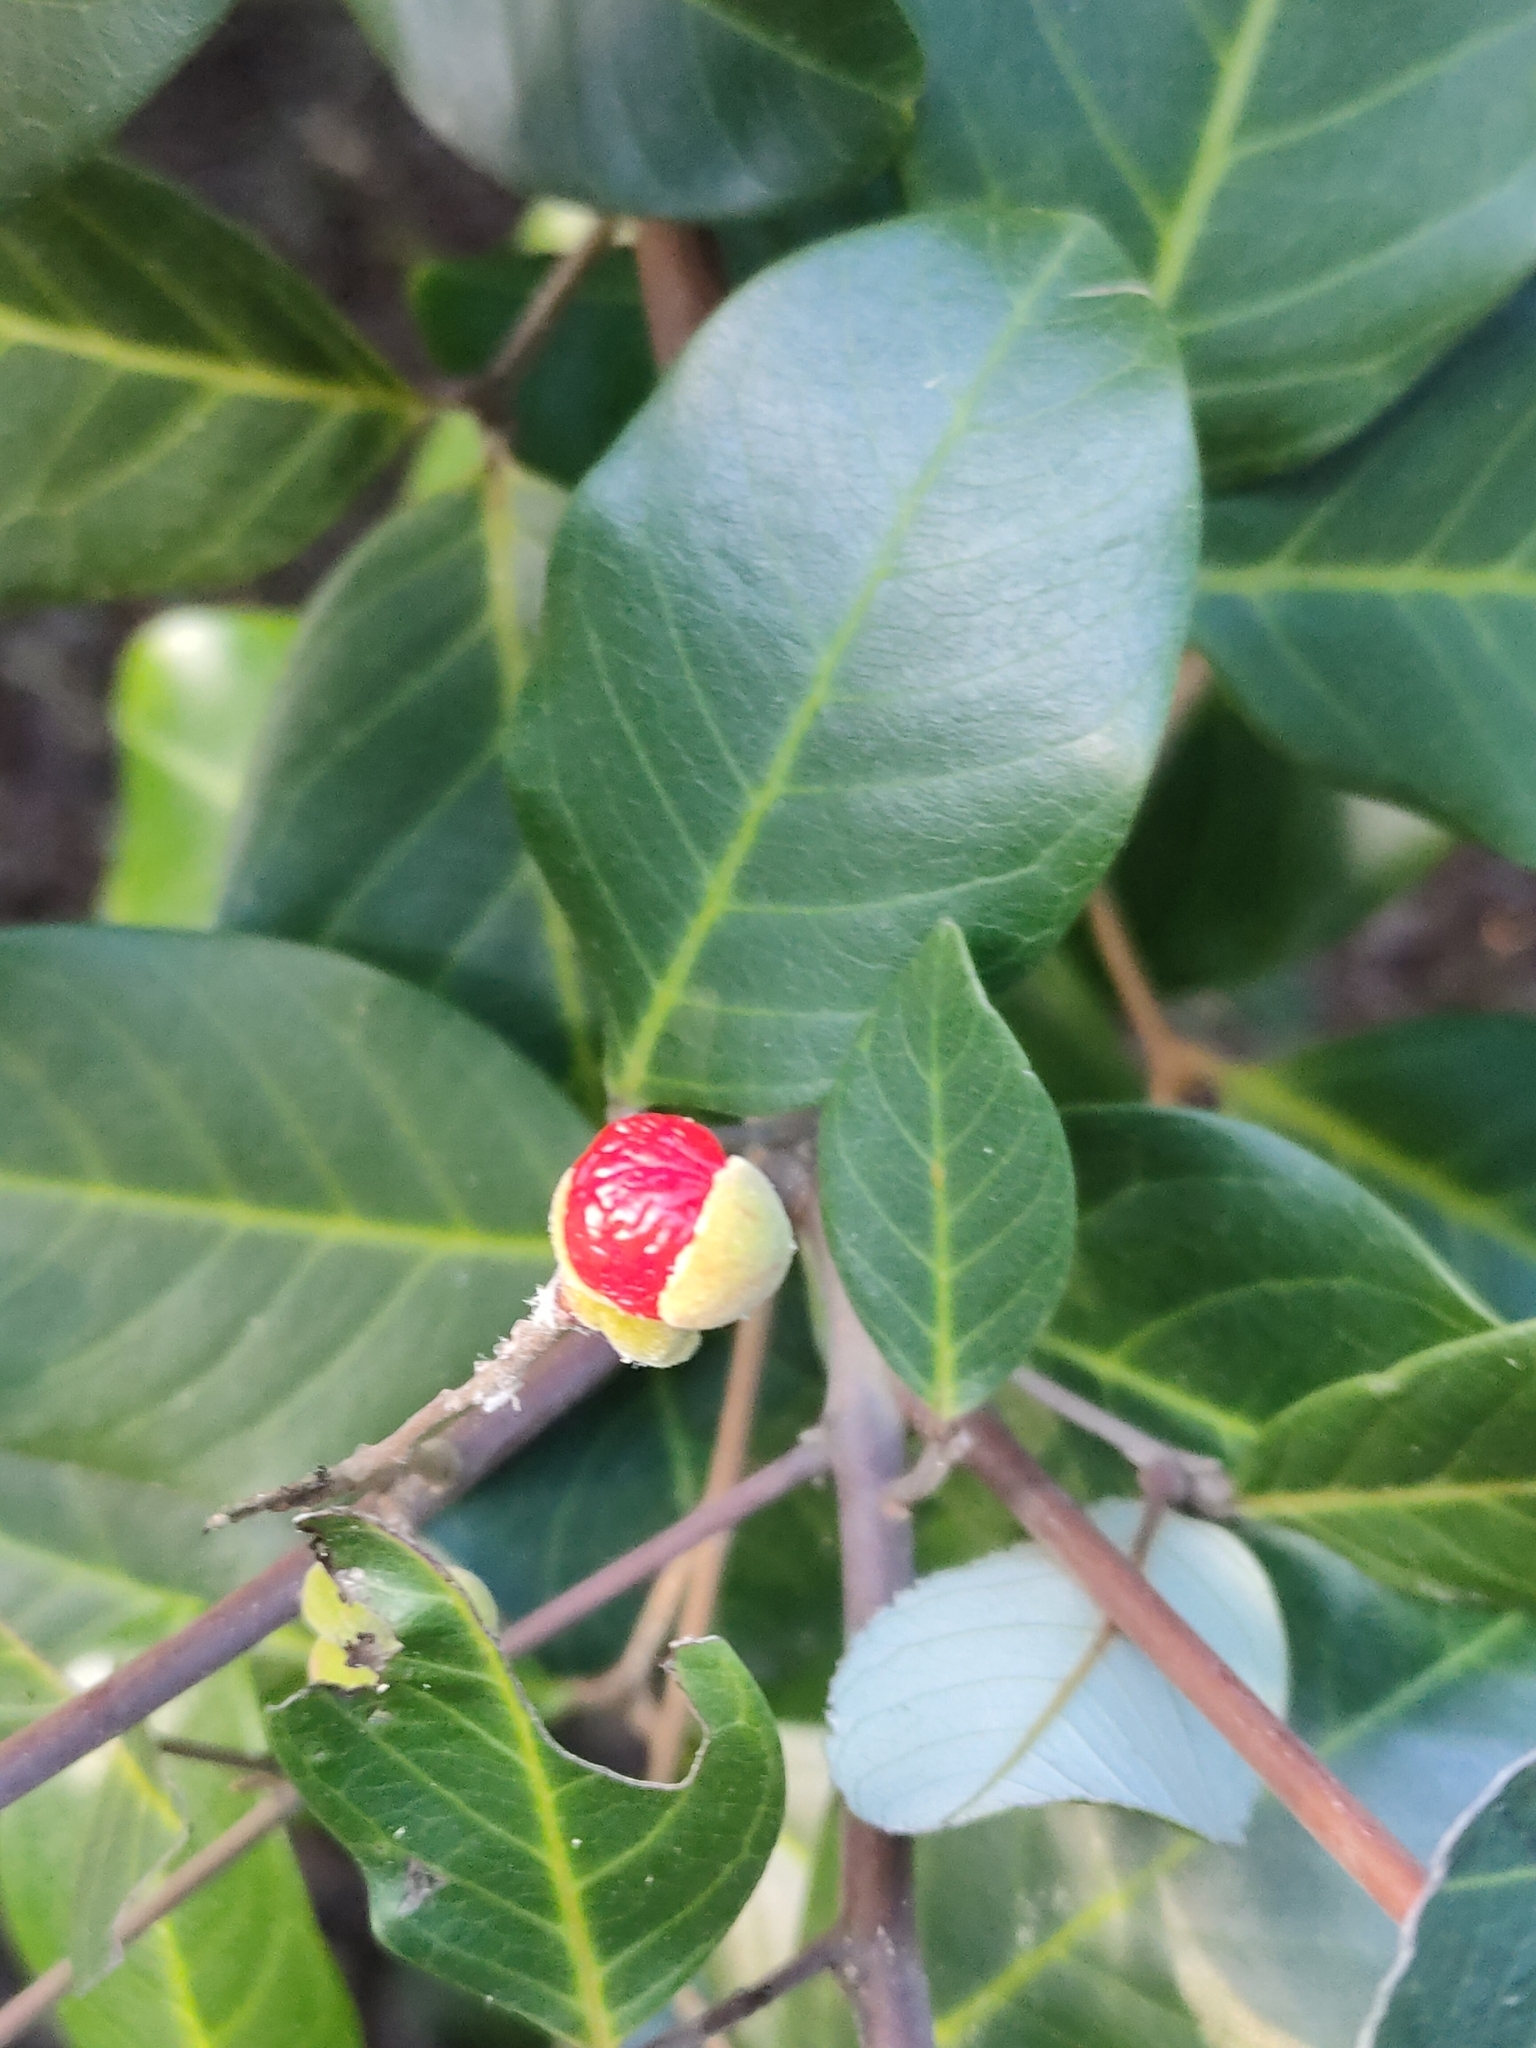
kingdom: Plantae
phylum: Tracheophyta
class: Magnoliopsida
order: Sapindales
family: Sapindaceae
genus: Alectryon
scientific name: Alectryon coriaceus
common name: Beach alectryon
